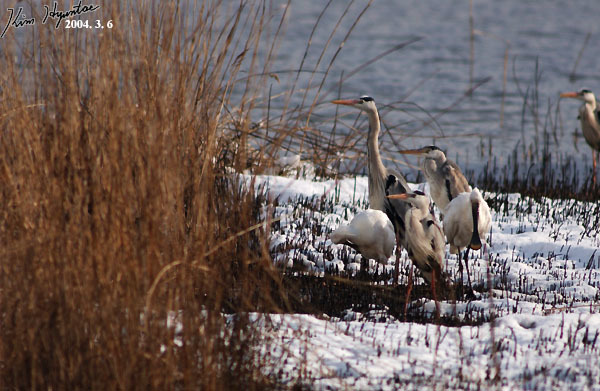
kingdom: Animalia
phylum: Chordata
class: Aves
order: Pelecaniformes
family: Threskiornithidae
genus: Platalea
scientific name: Platalea leucorodia
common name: Eurasian spoonbill
